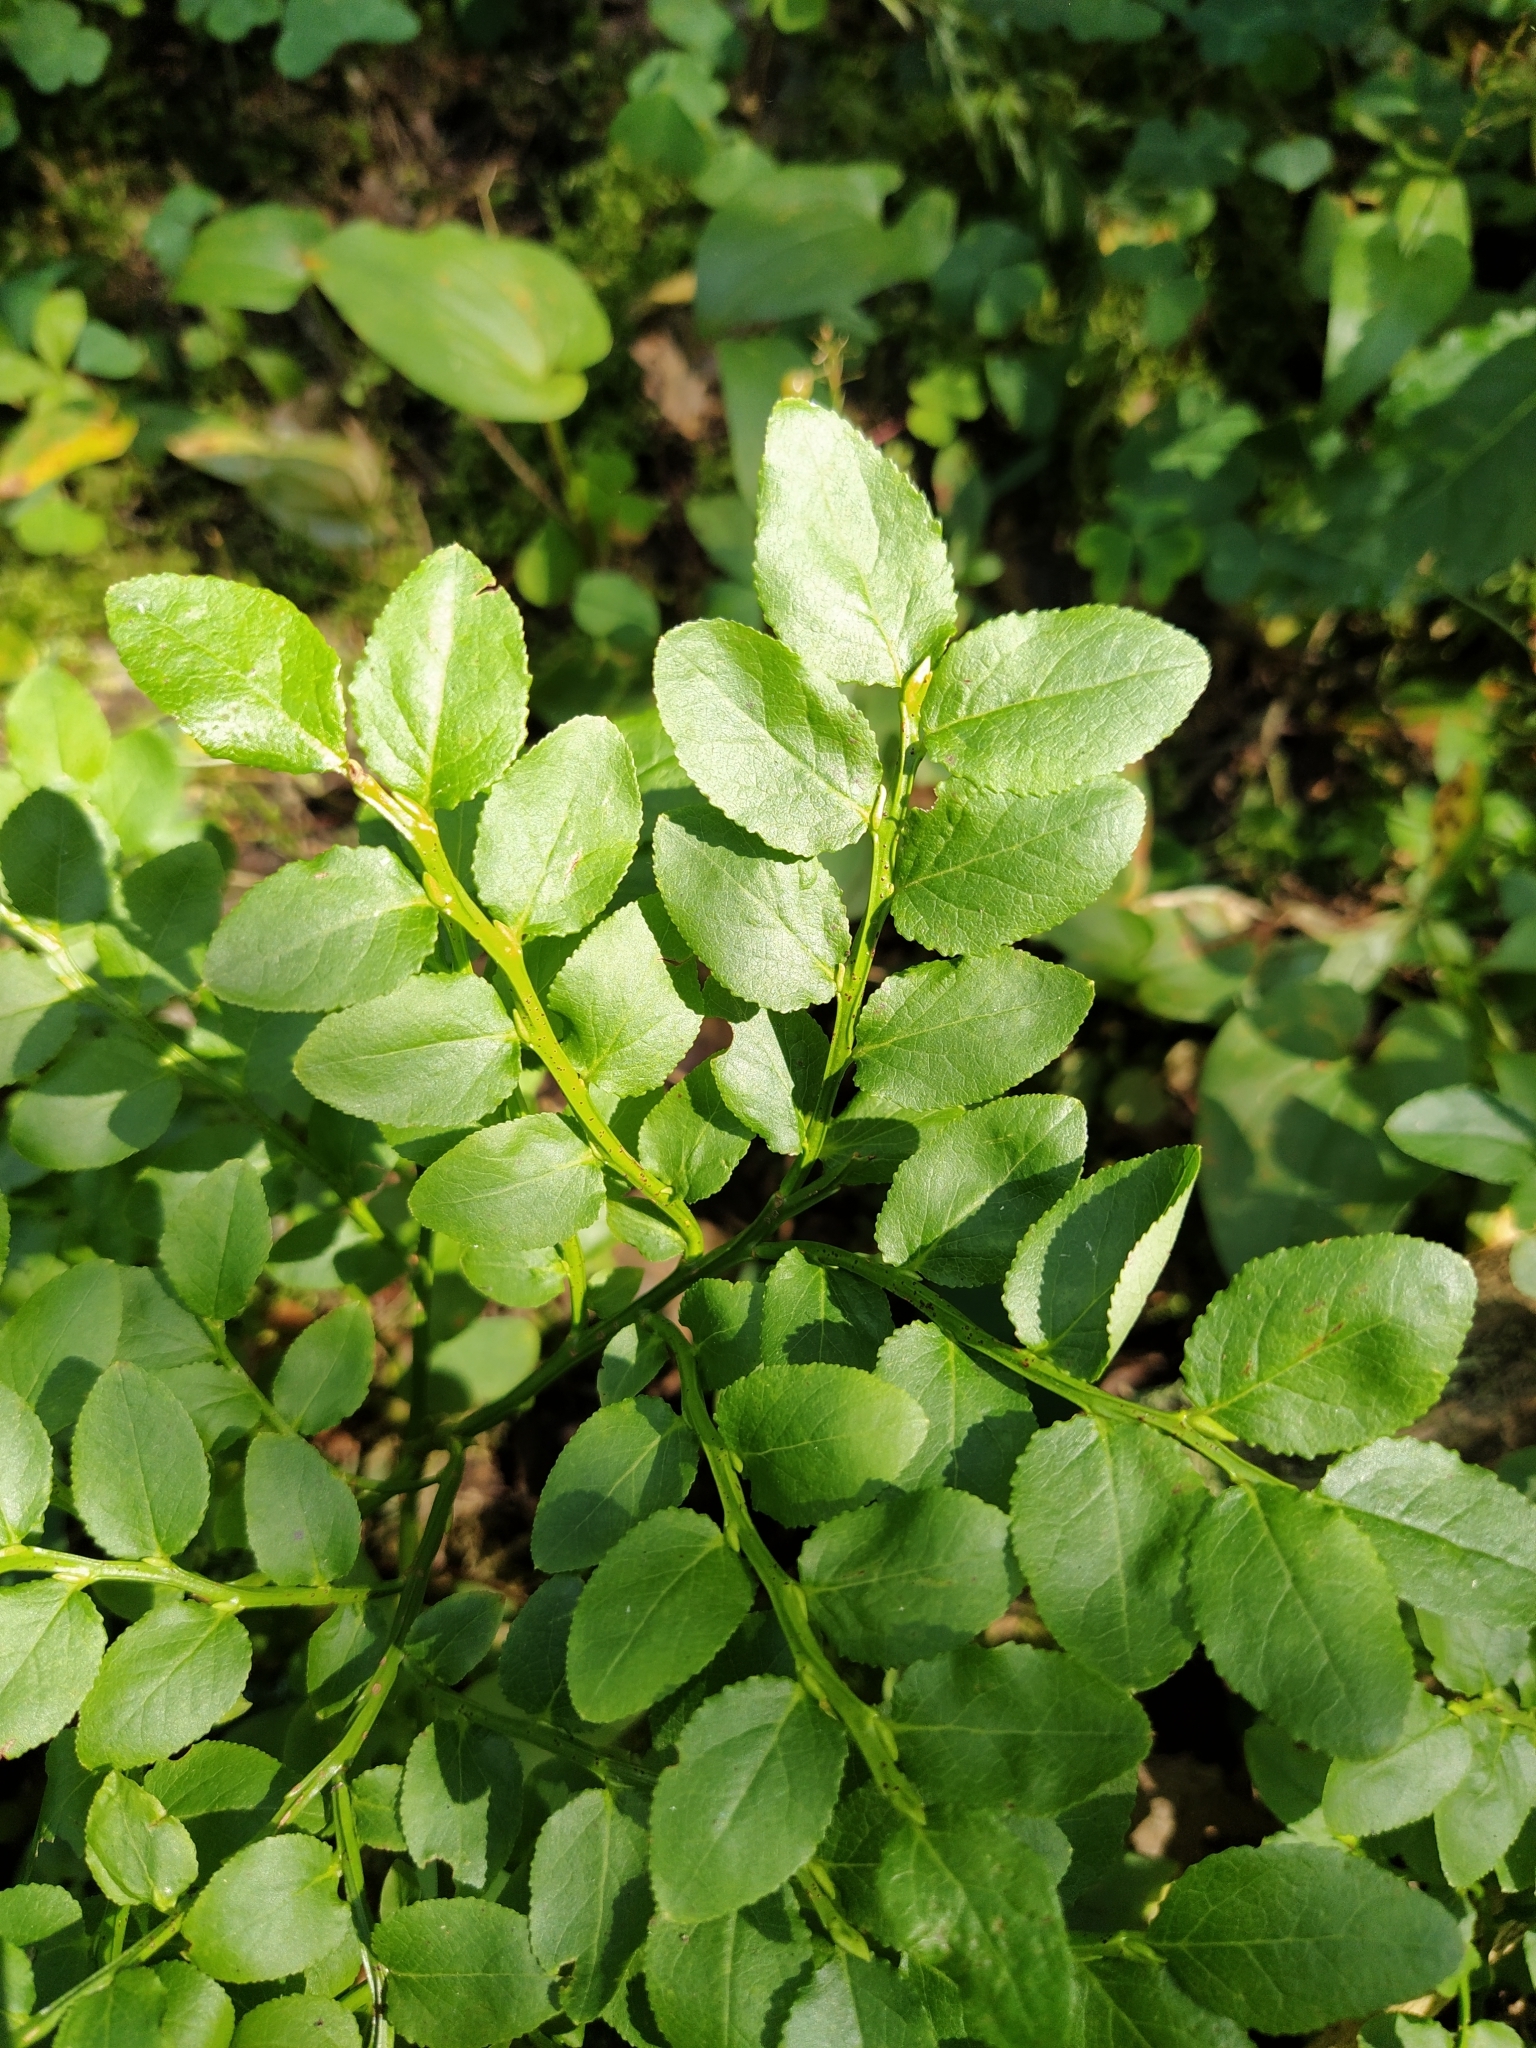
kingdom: Plantae
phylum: Tracheophyta
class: Magnoliopsida
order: Ericales
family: Ericaceae
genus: Vaccinium
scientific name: Vaccinium myrtillus
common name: Bilberry
